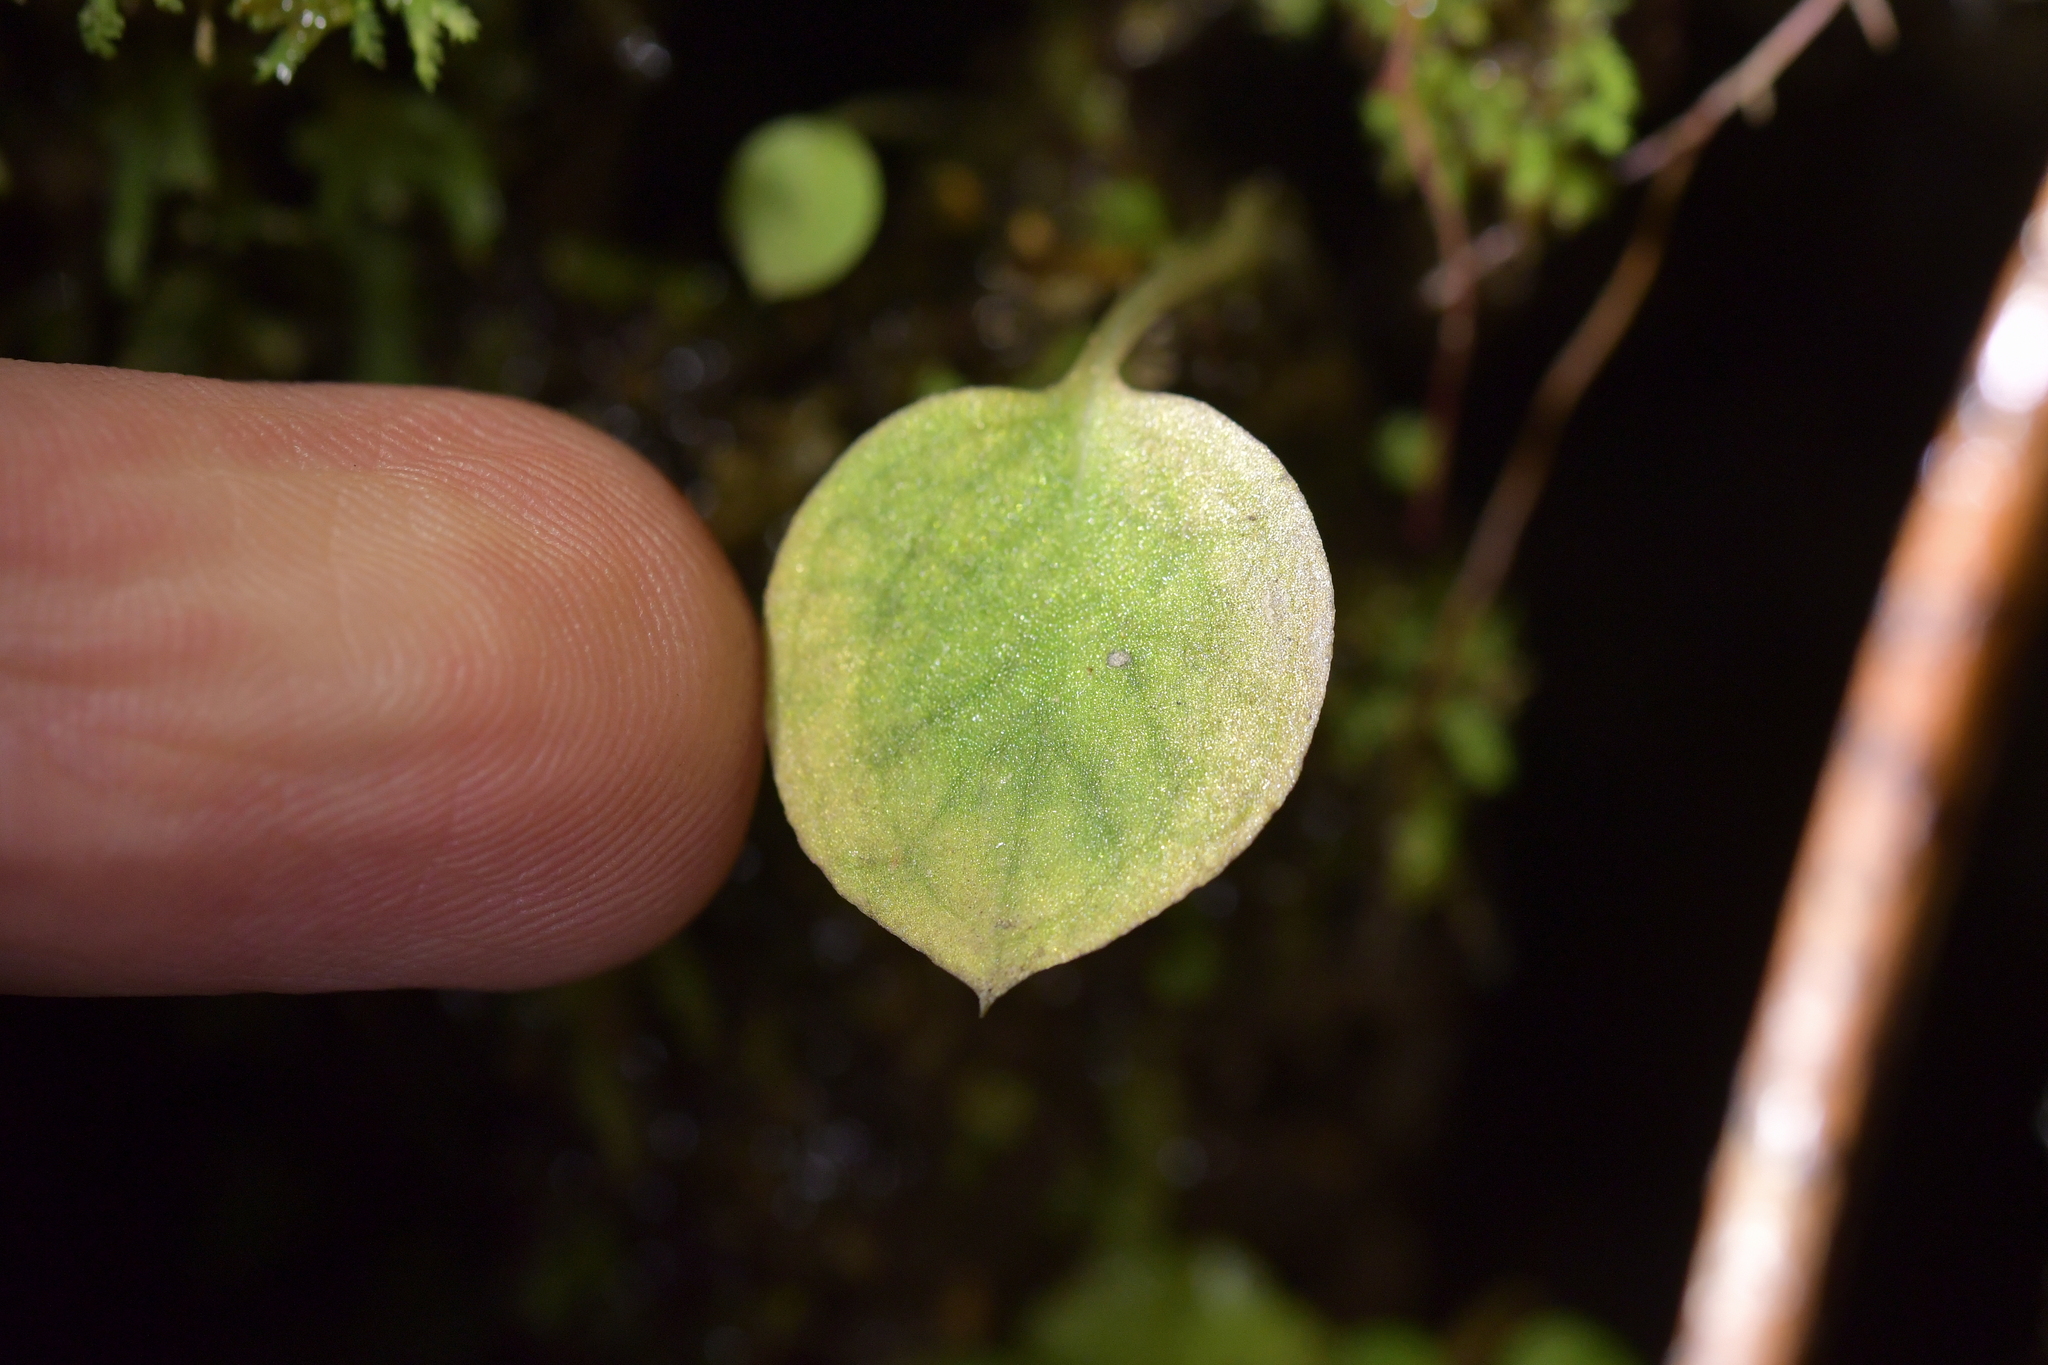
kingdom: Plantae
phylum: Tracheophyta
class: Liliopsida
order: Asparagales
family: Orchidaceae
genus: Corybas
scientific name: Corybas oblongus
